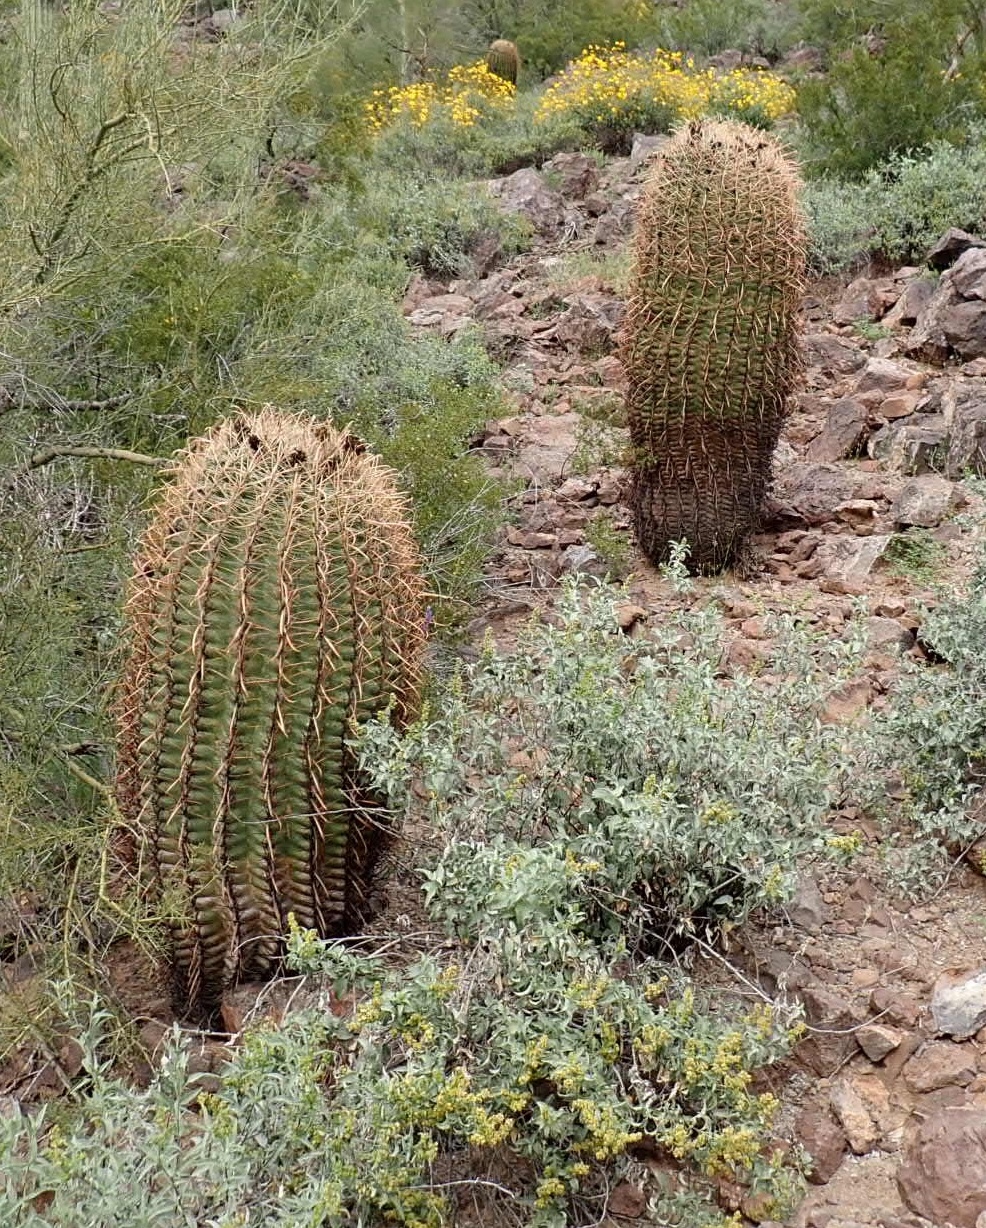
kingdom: Plantae
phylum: Tracheophyta
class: Magnoliopsida
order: Caryophyllales
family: Cactaceae
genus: Ferocactus
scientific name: Ferocactus cylindraceus
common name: California barrel cactus
